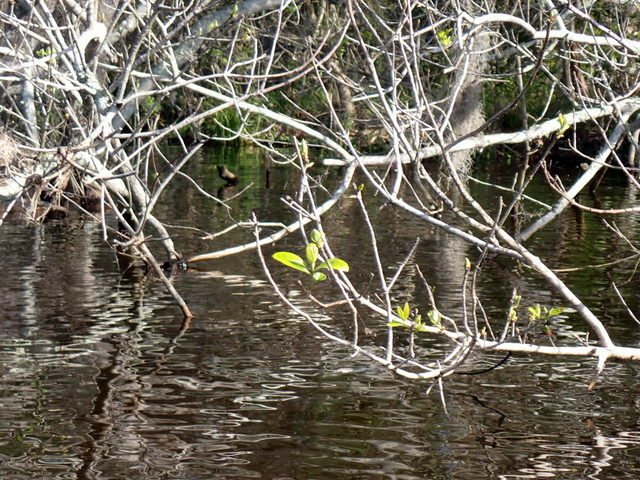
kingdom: Plantae
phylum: Tracheophyta
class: Magnoliopsida
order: Cornales
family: Nyssaceae
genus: Nyssa
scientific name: Nyssa ogeche
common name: Ogeechee tupelo
